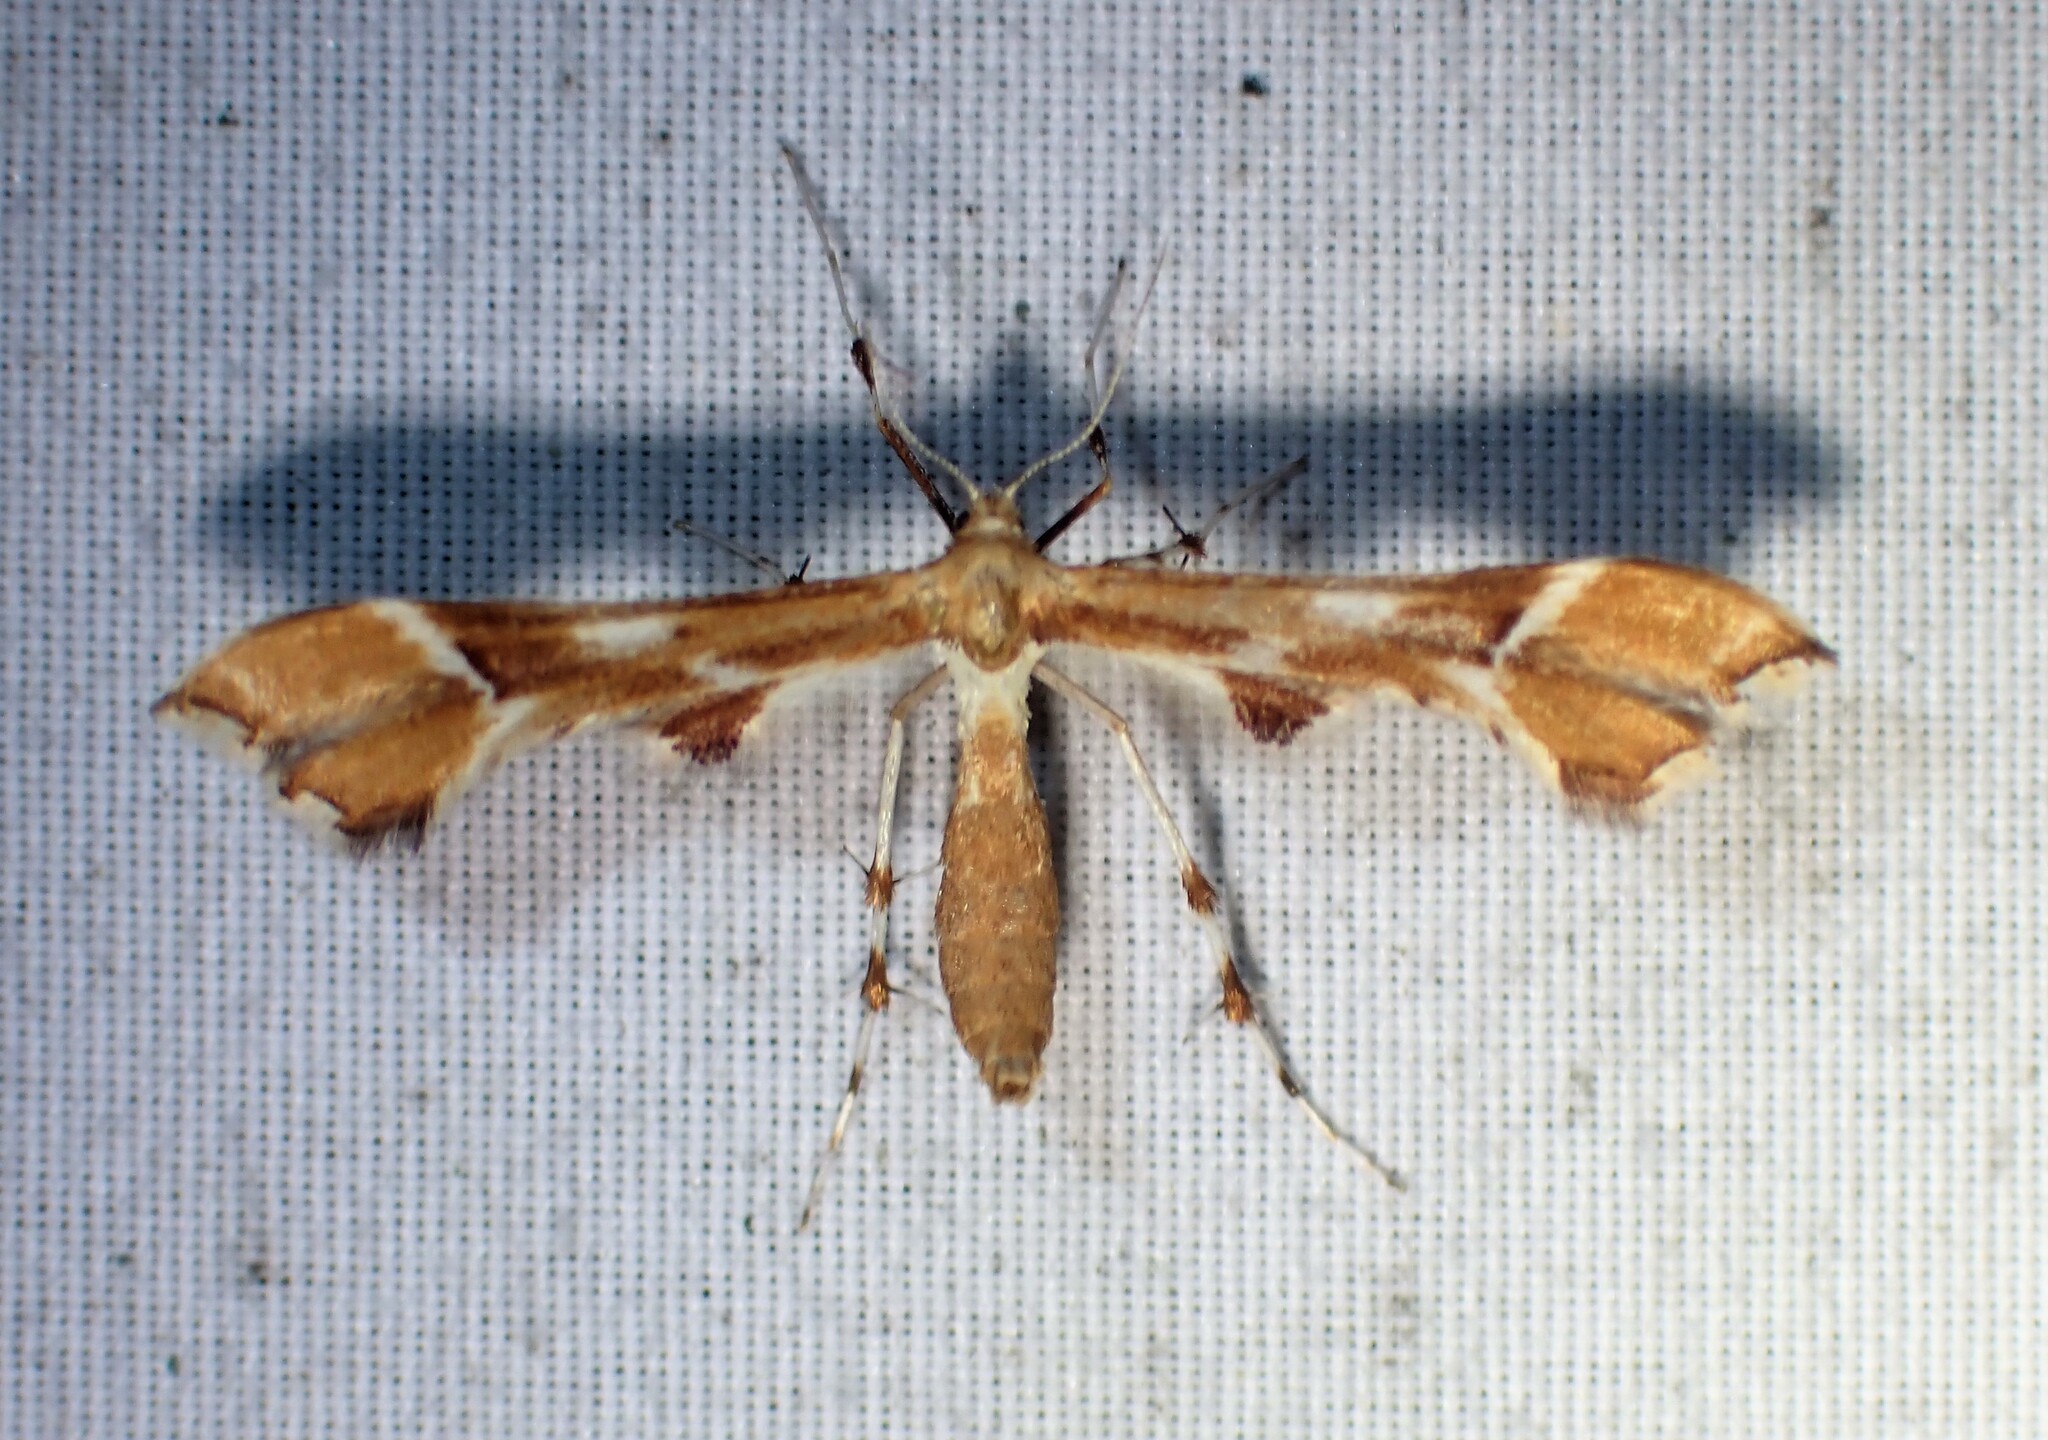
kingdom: Animalia
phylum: Arthropoda
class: Insecta
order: Lepidoptera
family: Pterophoridae
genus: Cnaemidophorus
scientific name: Cnaemidophorus rhododactyla
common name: Rose plume
